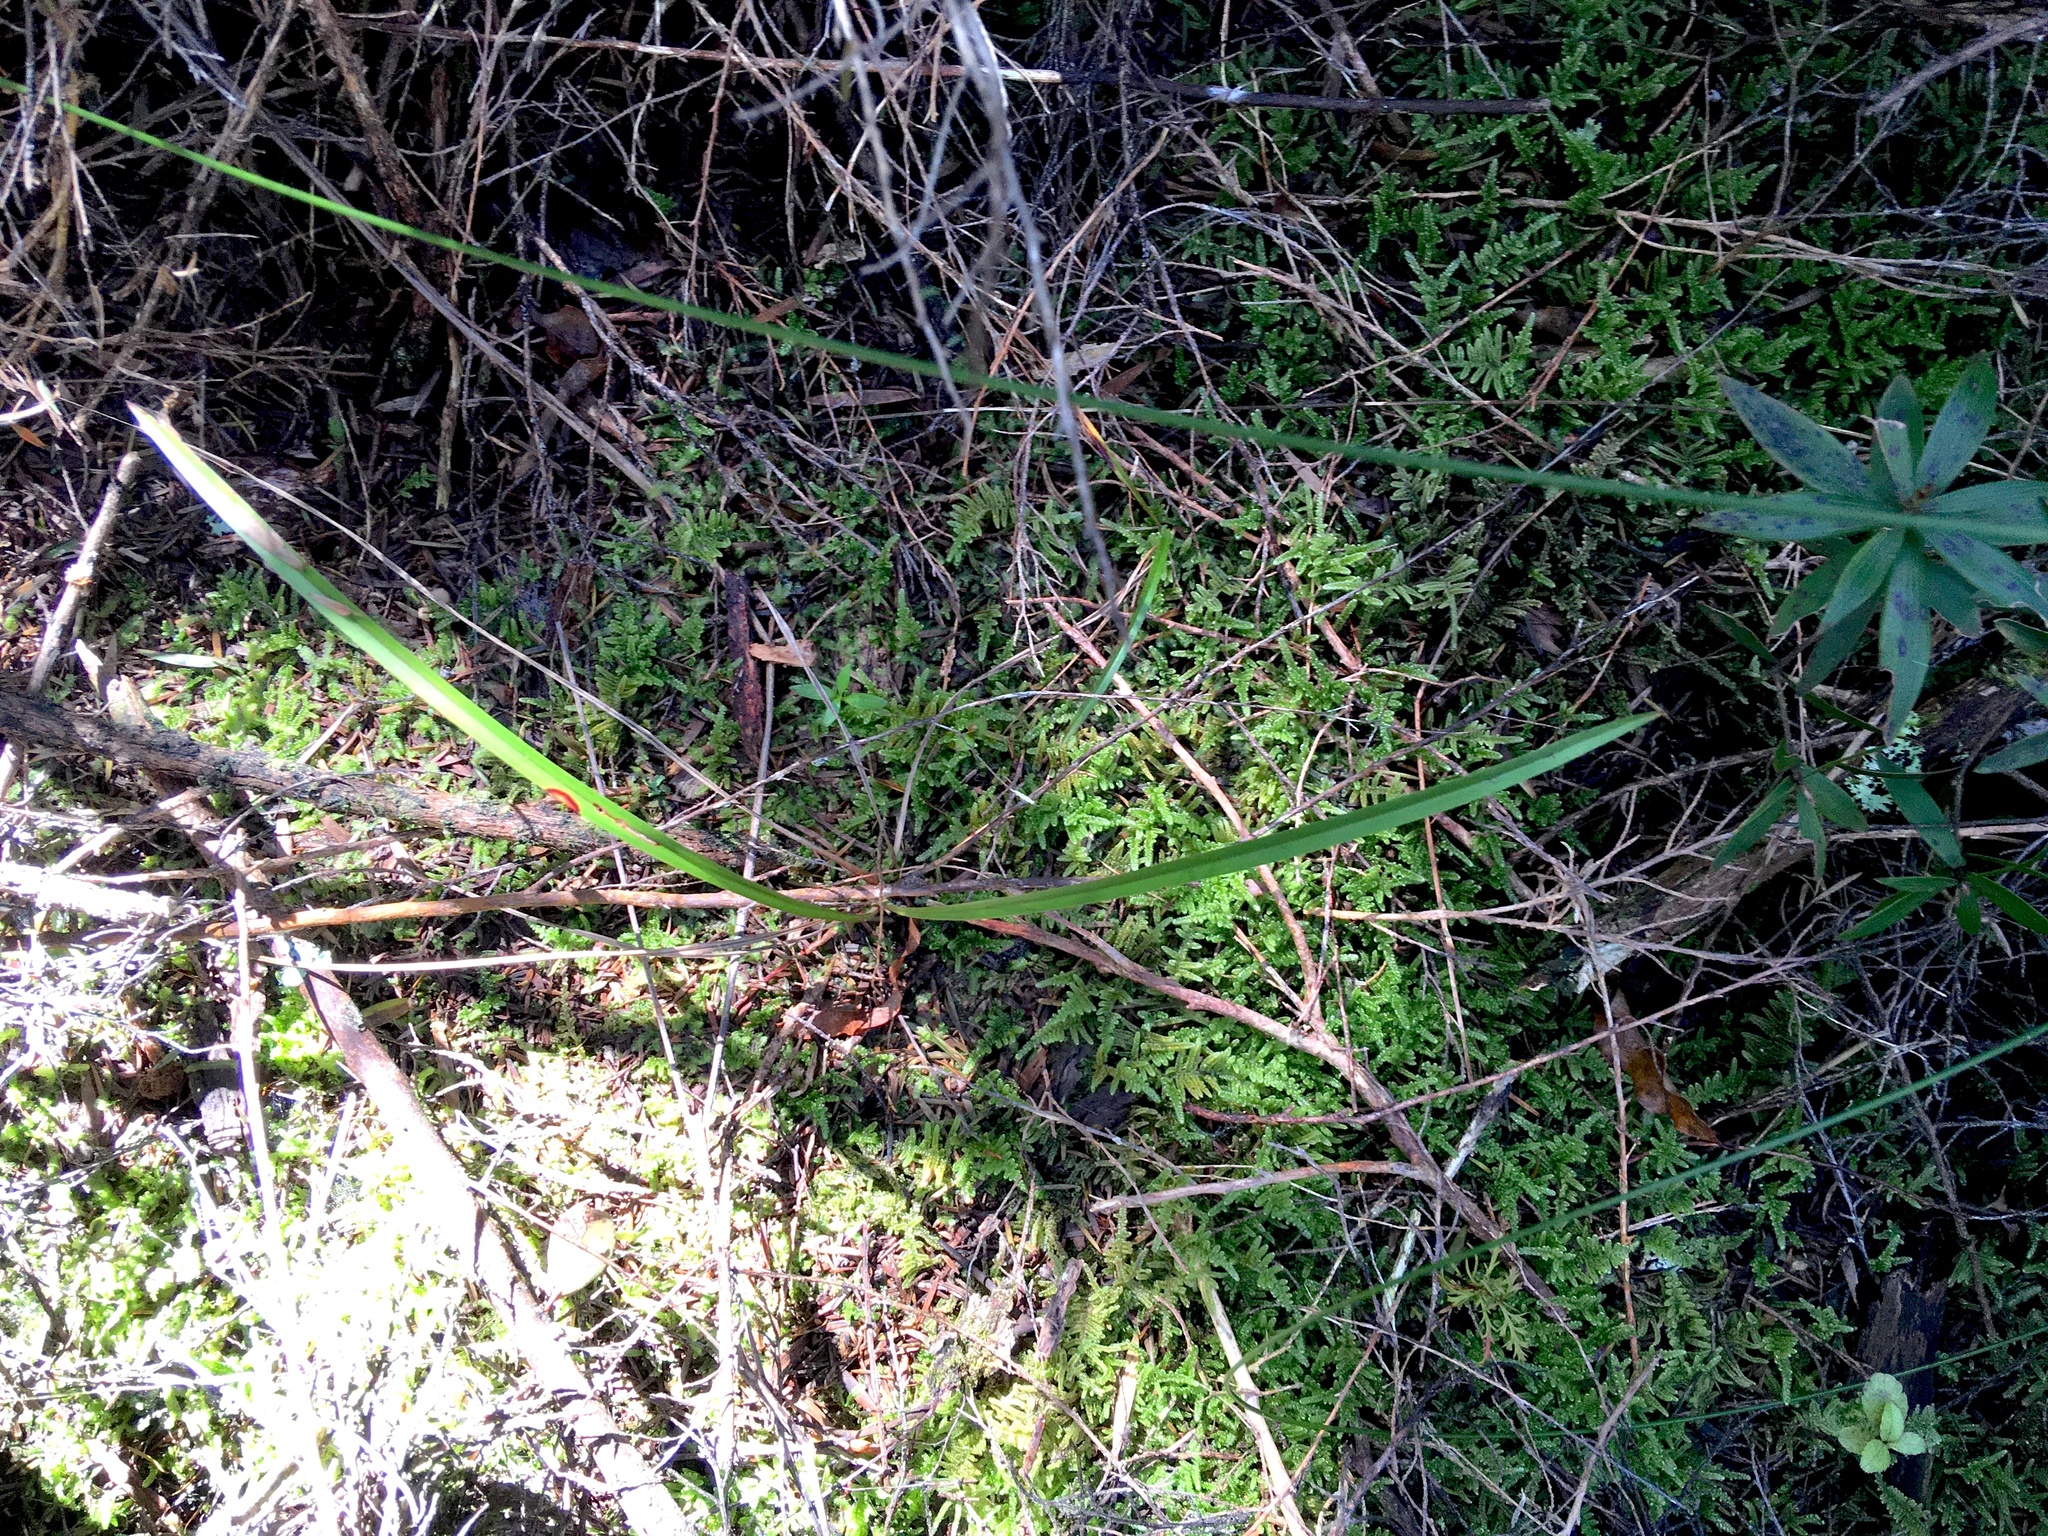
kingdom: Plantae
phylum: Tracheophyta
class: Liliopsida
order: Asparagales
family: Asphodelaceae
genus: Dianella
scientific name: Dianella nigra
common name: New zealand-blueberry
